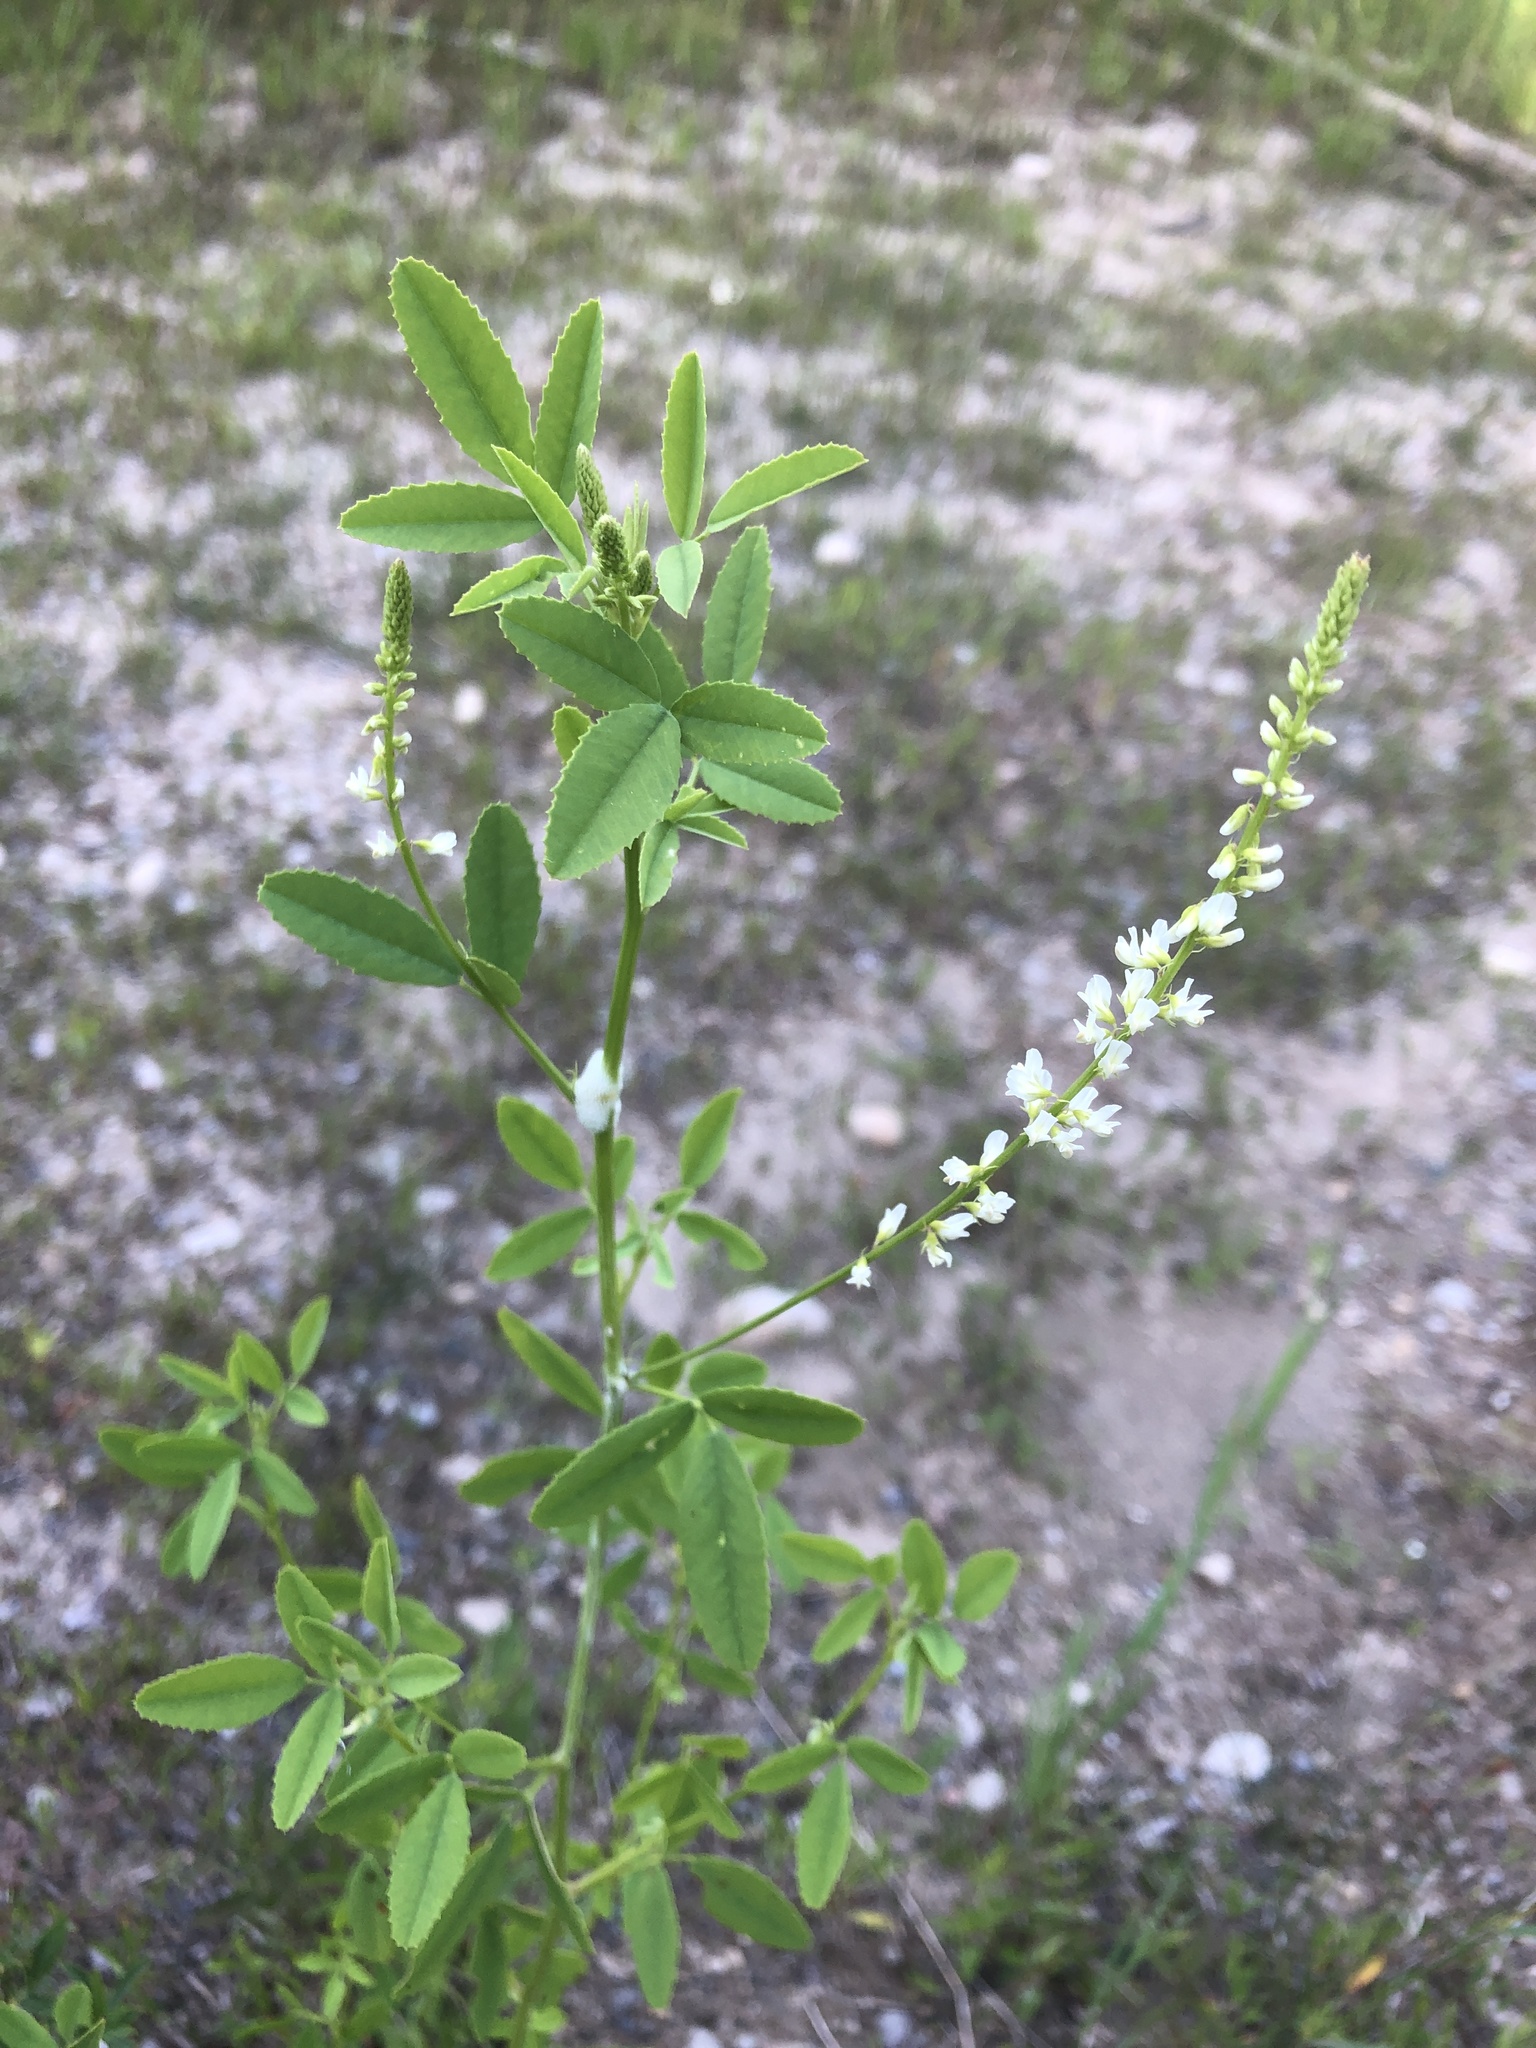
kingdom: Plantae
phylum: Tracheophyta
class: Magnoliopsida
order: Fabales
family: Fabaceae
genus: Melilotus
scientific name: Melilotus albus
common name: White melilot
